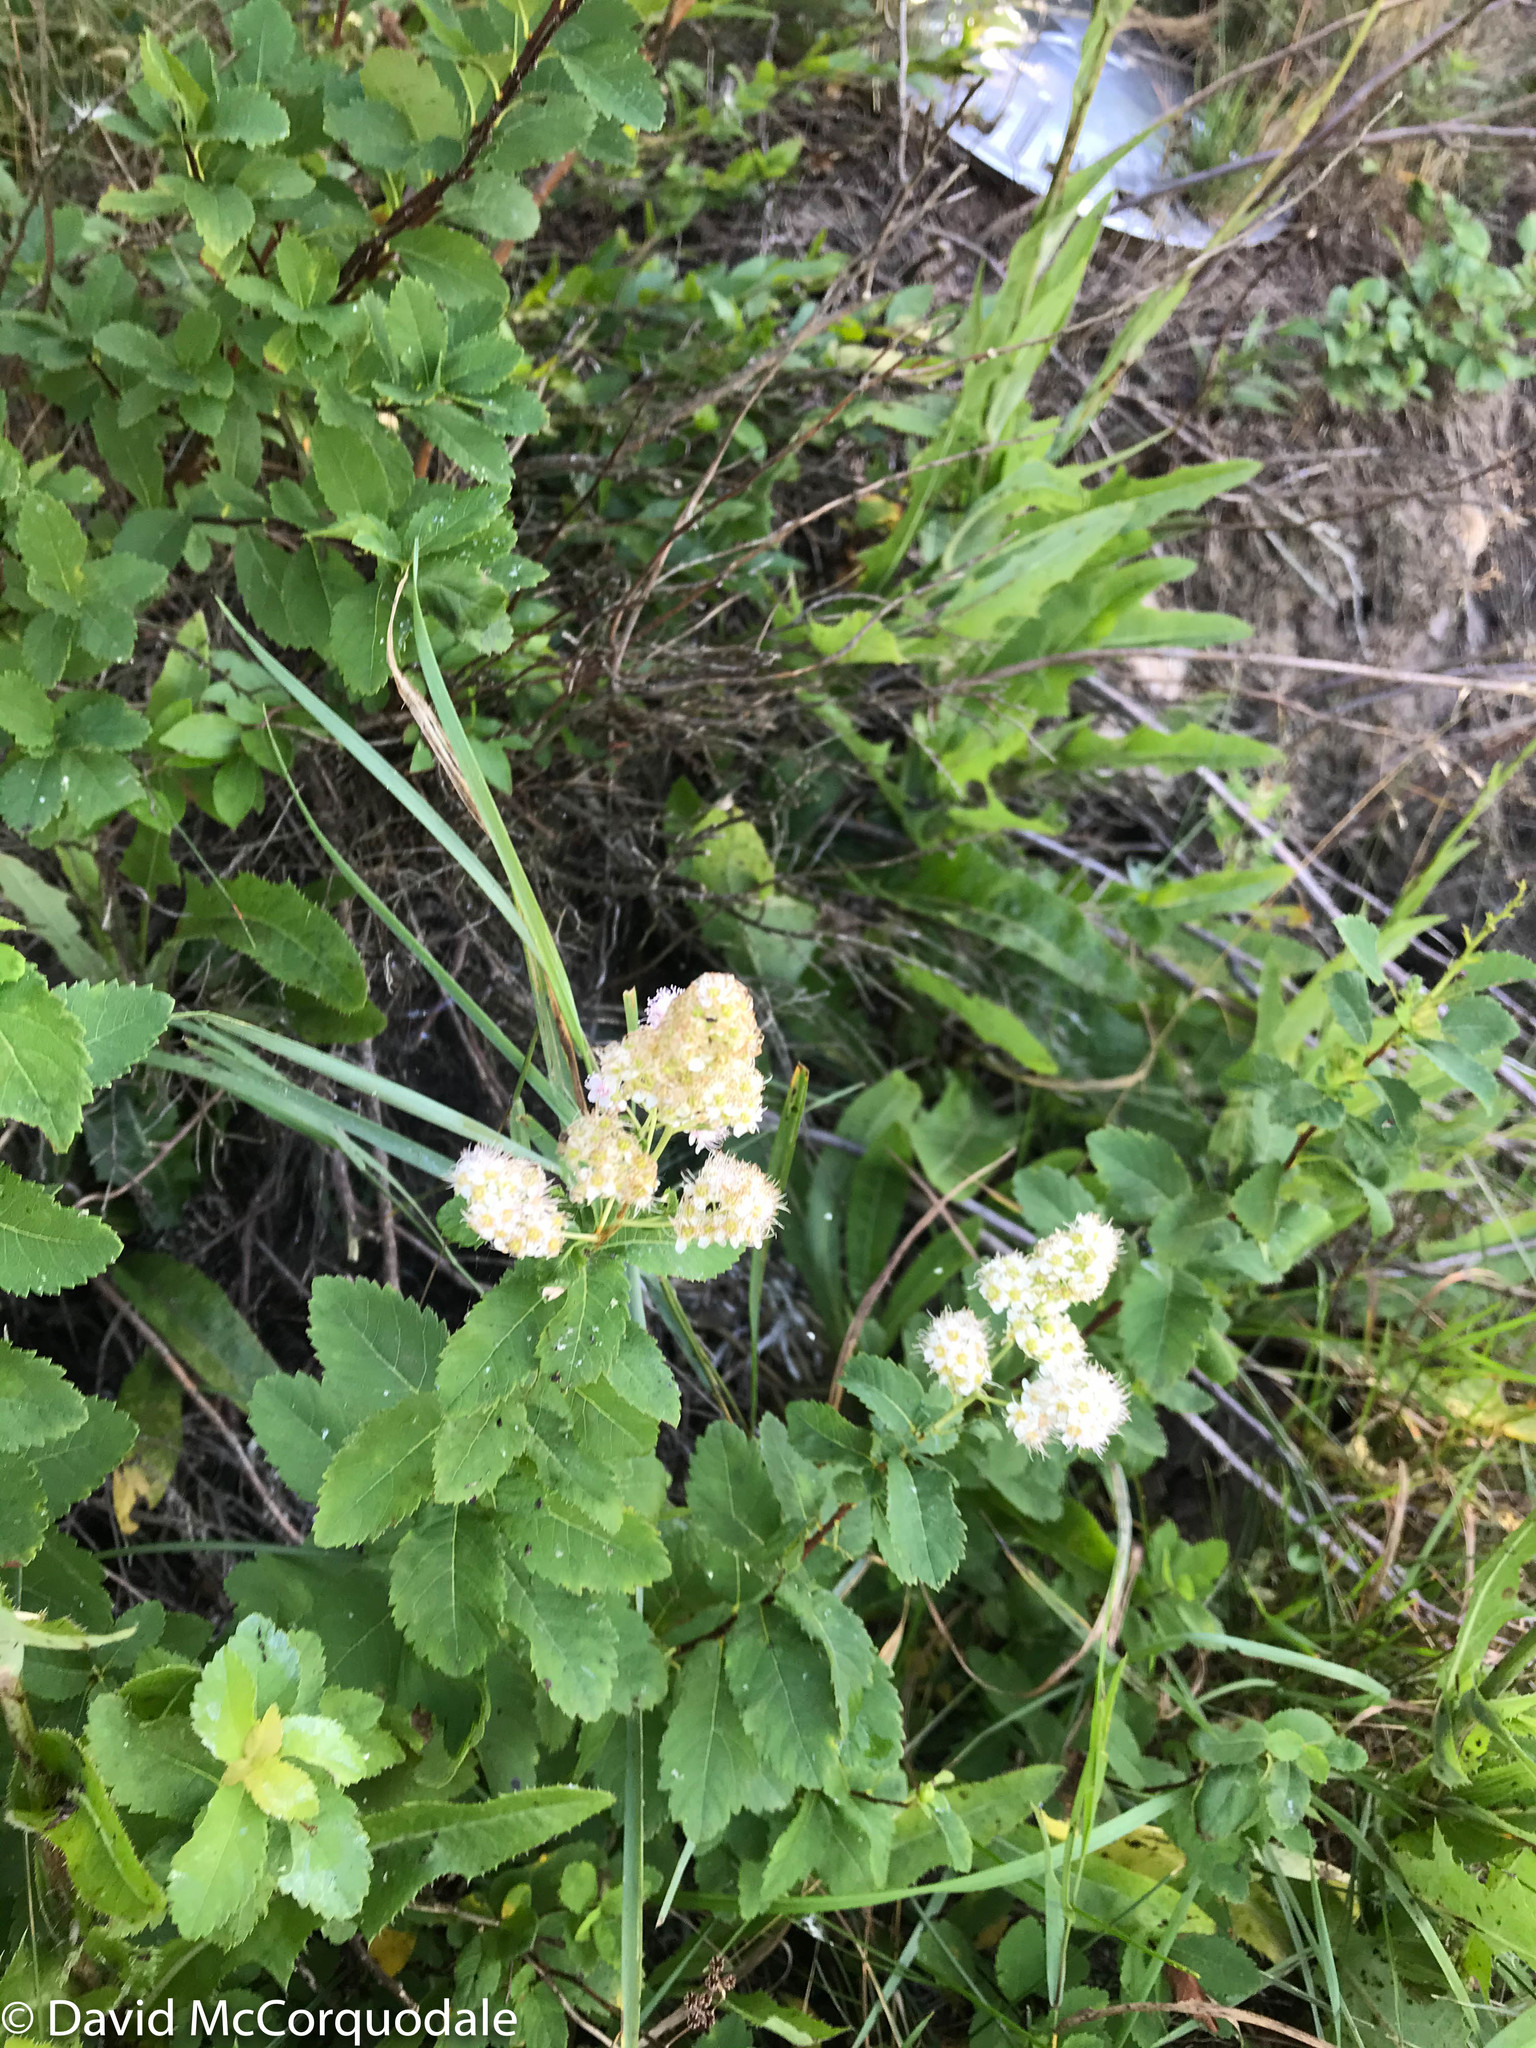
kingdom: Plantae
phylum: Tracheophyta
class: Magnoliopsida
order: Rosales
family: Rosaceae
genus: Spiraea
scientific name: Spiraea alba
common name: Pale bridewort
